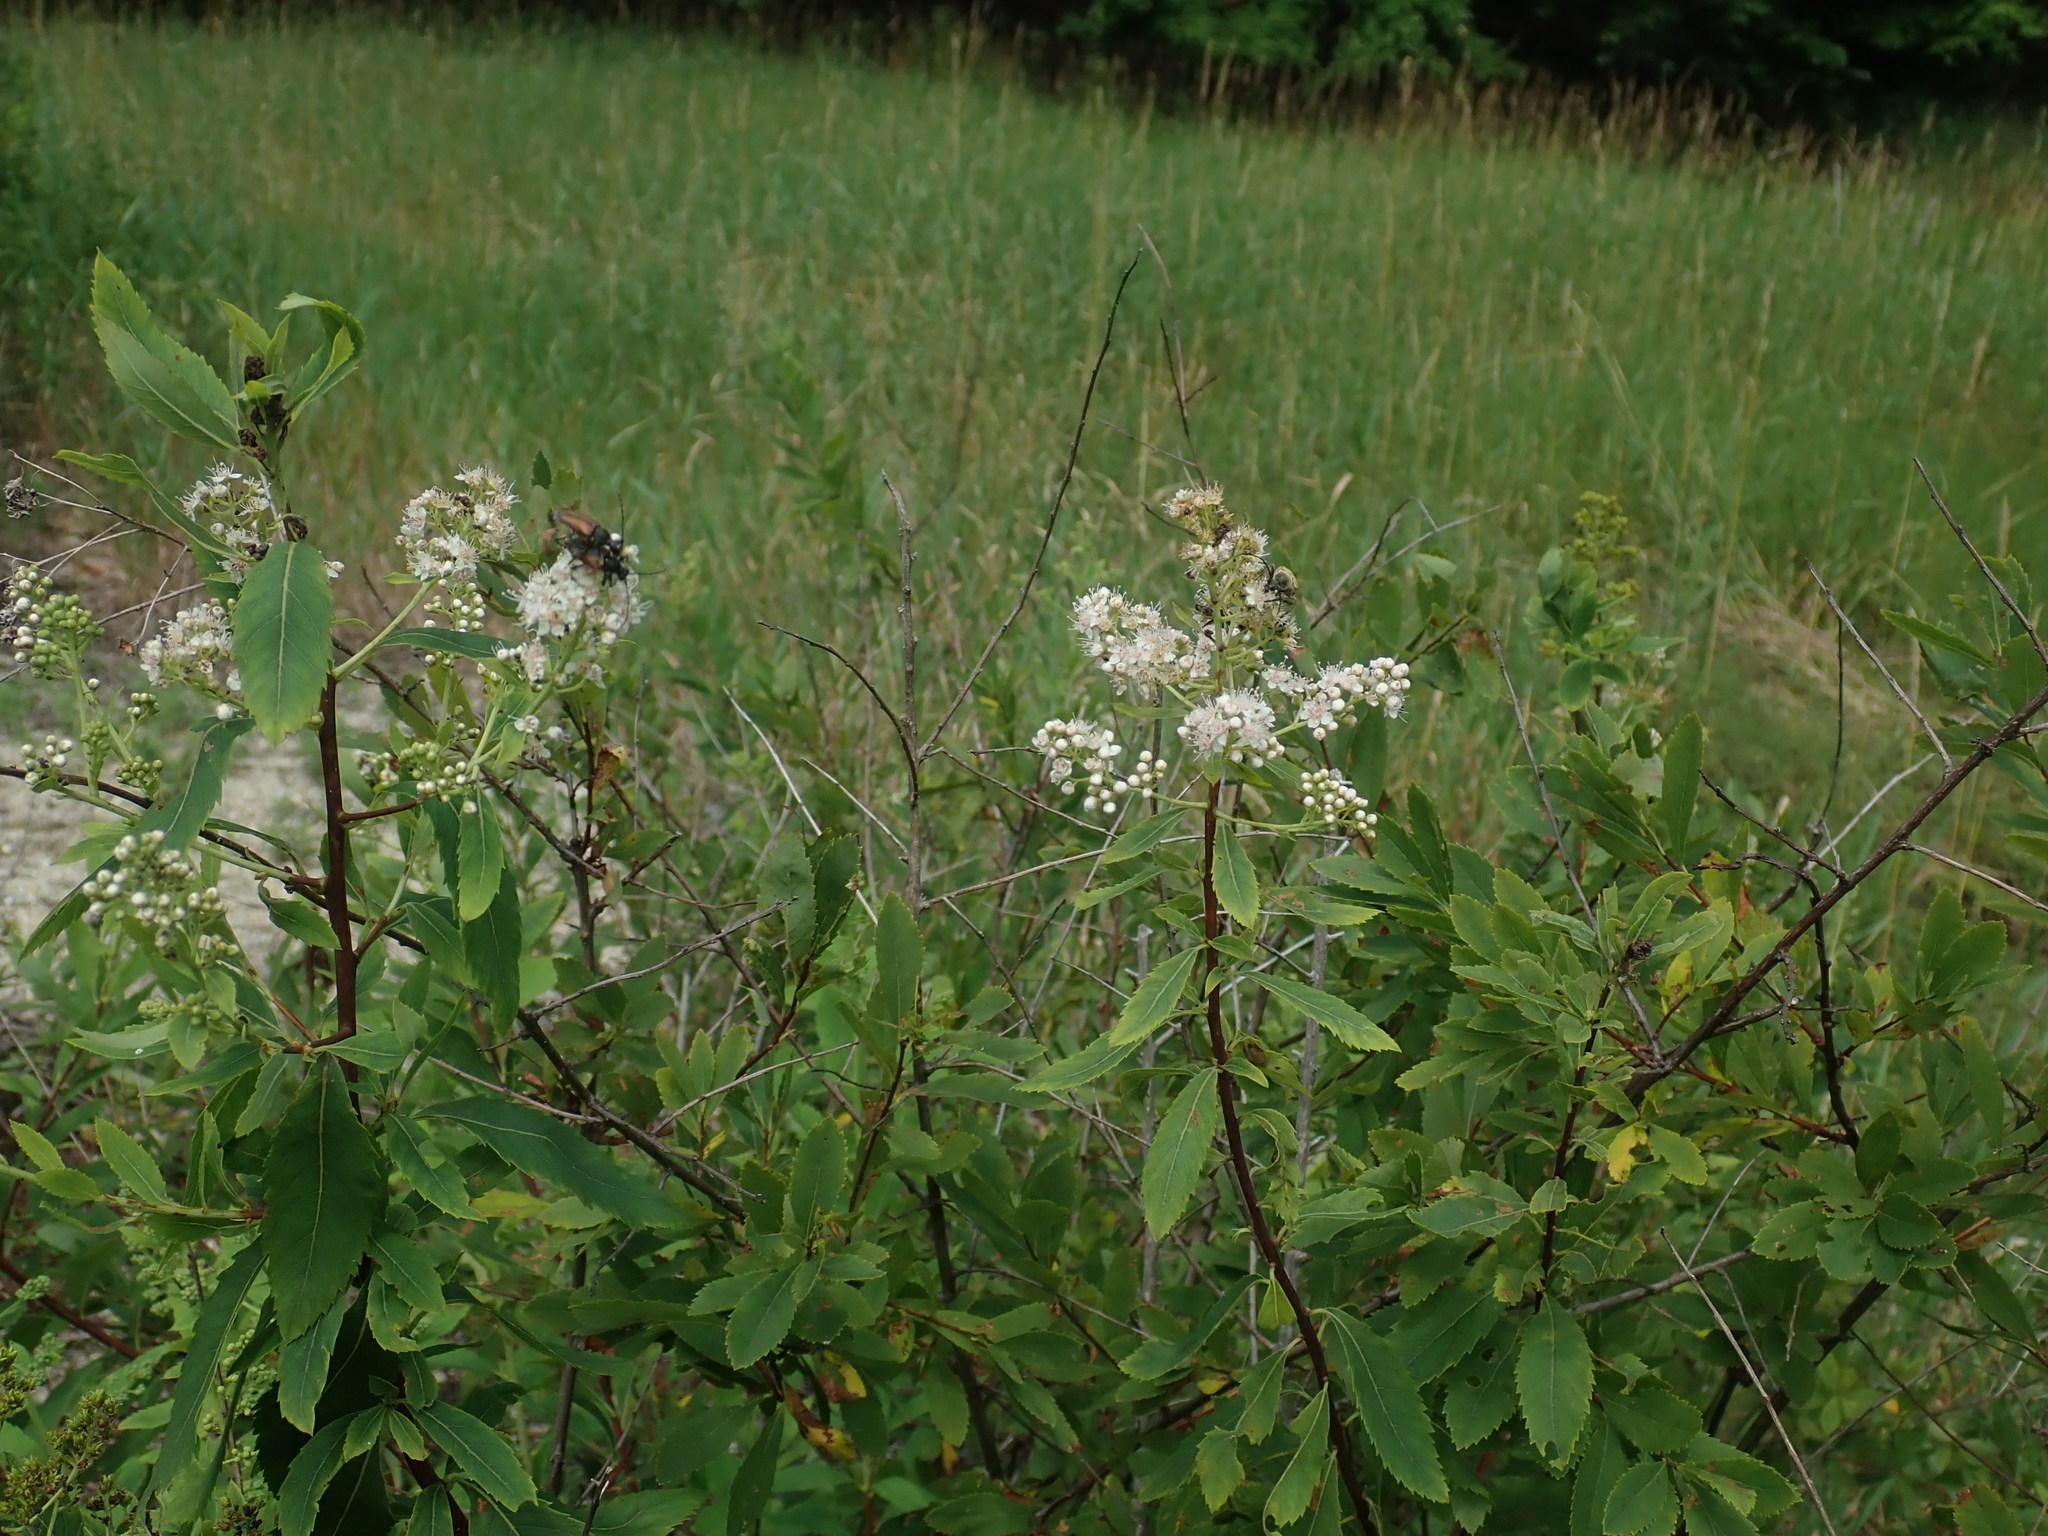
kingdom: Plantae
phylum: Tracheophyta
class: Magnoliopsida
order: Rosales
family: Rosaceae
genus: Spiraea
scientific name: Spiraea alba
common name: Pale bridewort
